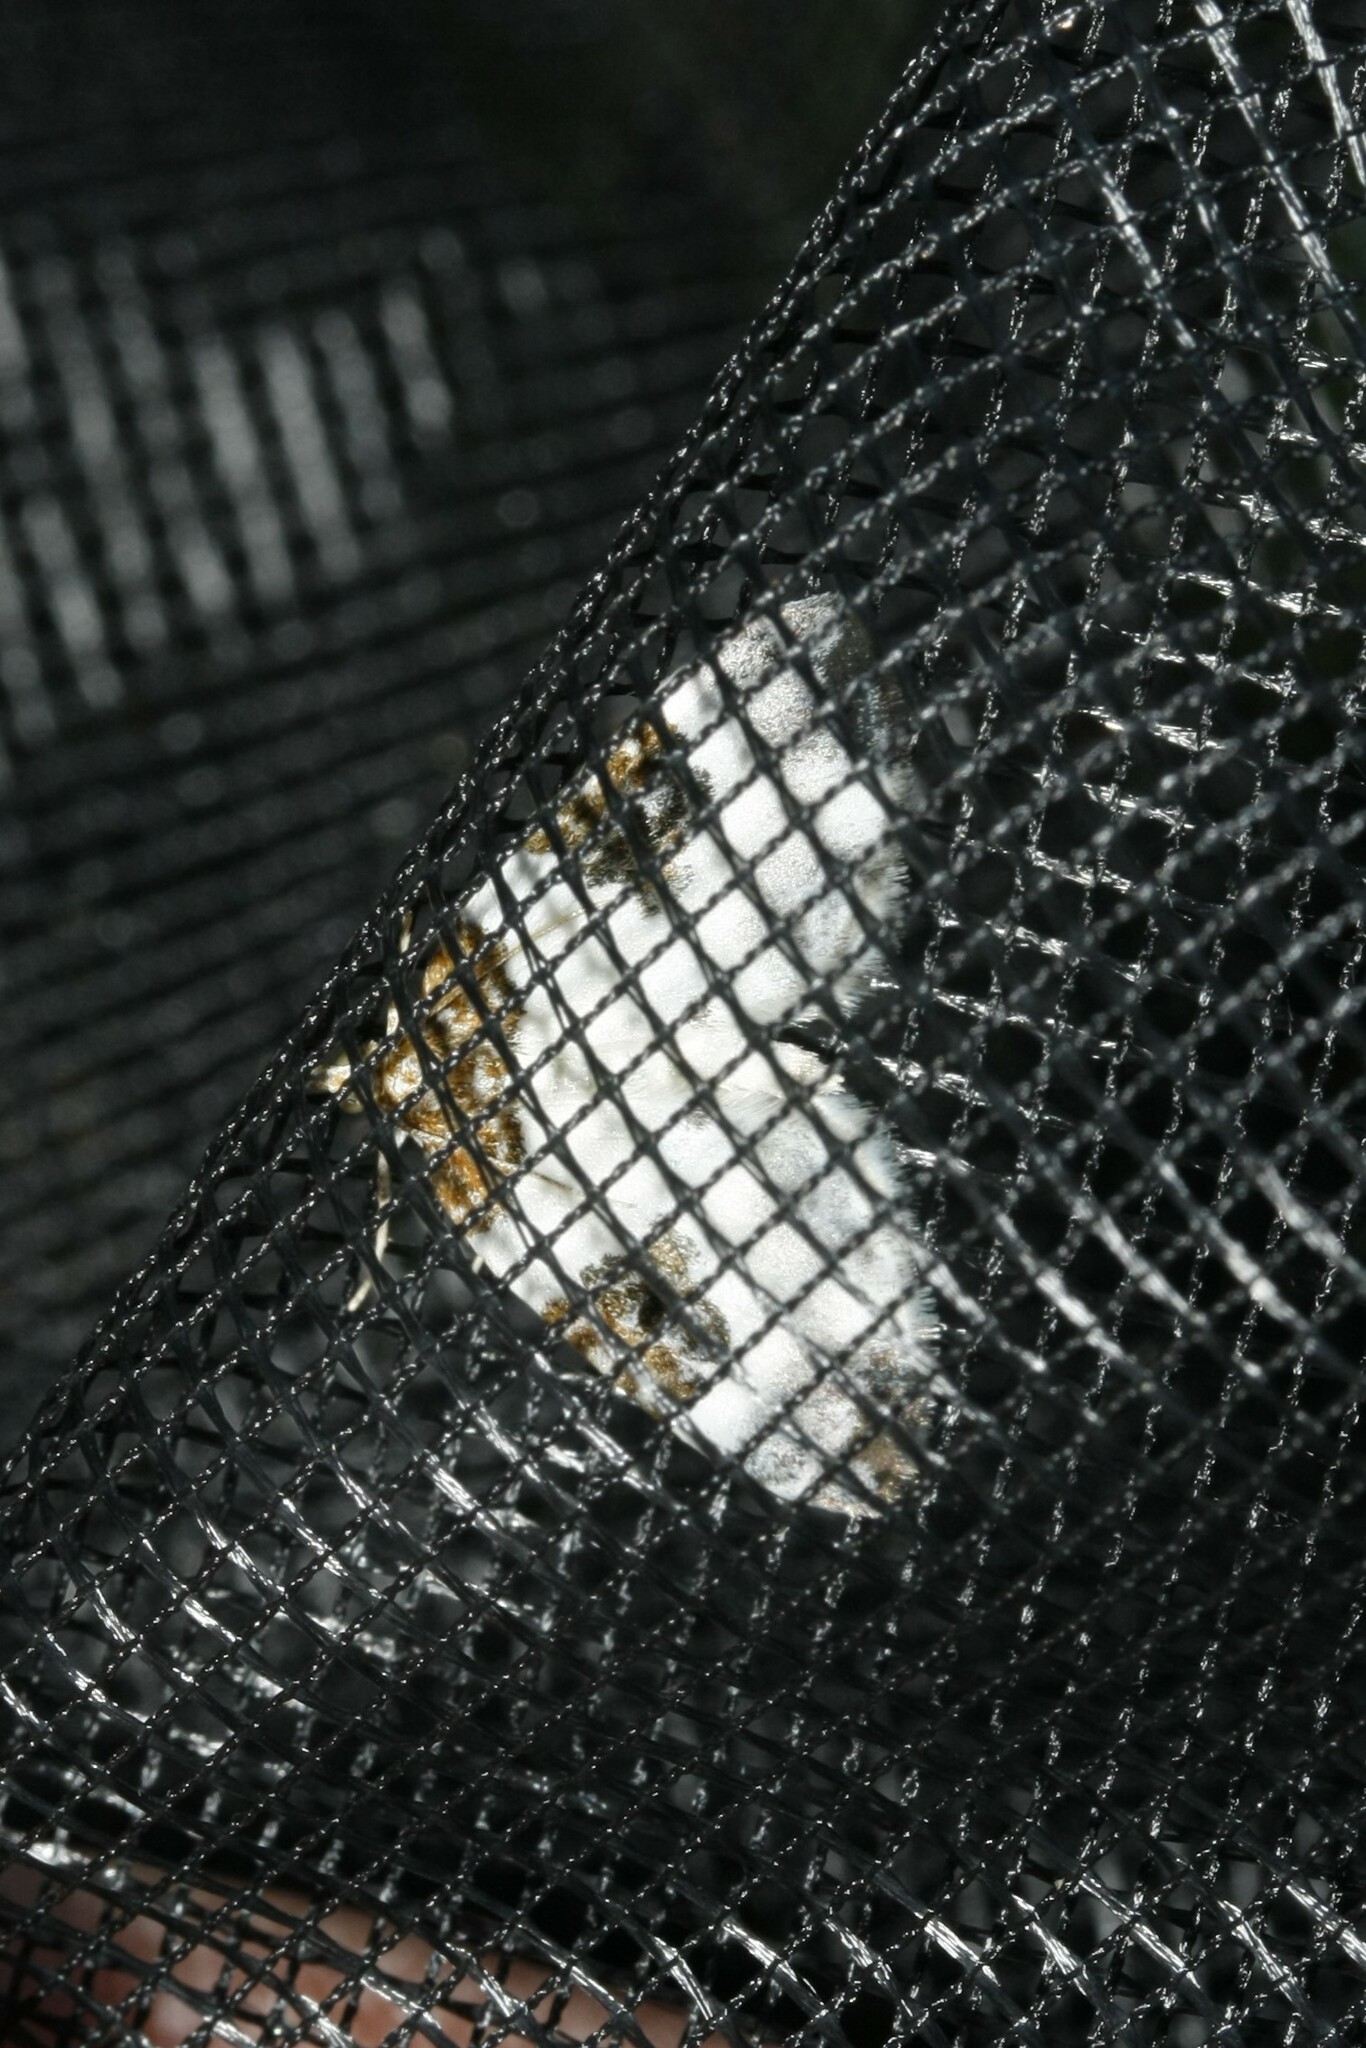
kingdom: Animalia
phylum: Arthropoda
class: Insecta
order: Lepidoptera
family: Geometridae
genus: Plemyria
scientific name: Plemyria rubiginata
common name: Blue-bordered carpet
